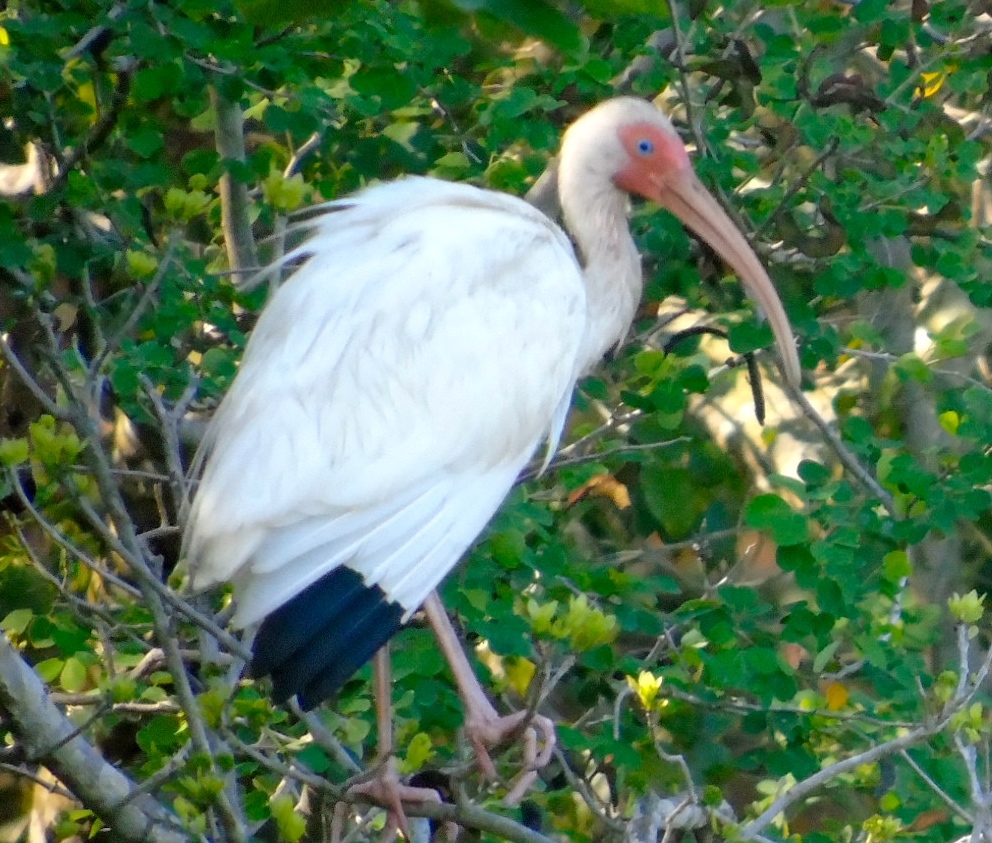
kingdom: Animalia
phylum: Chordata
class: Aves
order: Pelecaniformes
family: Threskiornithidae
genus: Eudocimus
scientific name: Eudocimus albus
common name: White ibis
